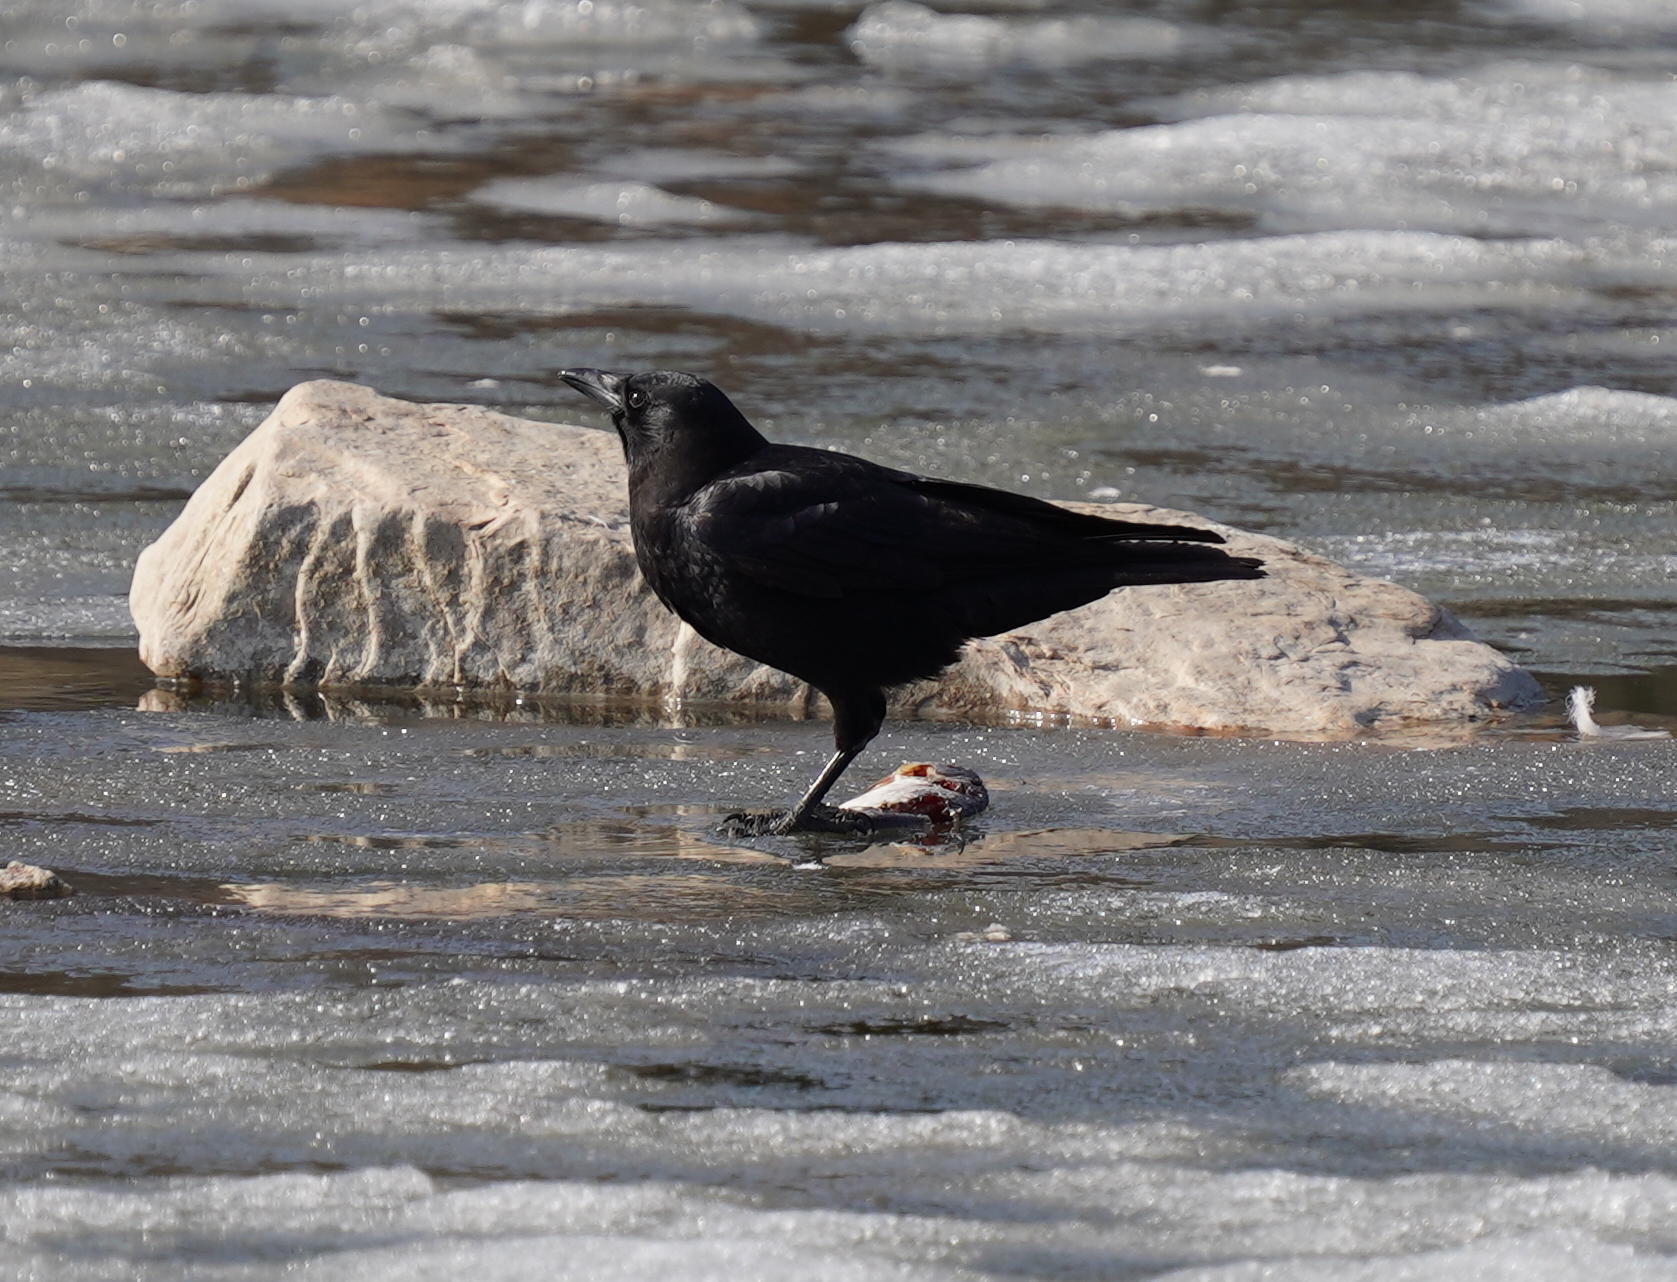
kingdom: Animalia
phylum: Chordata
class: Aves
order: Passeriformes
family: Corvidae
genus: Corvus
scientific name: Corvus brachyrhynchos
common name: American crow
